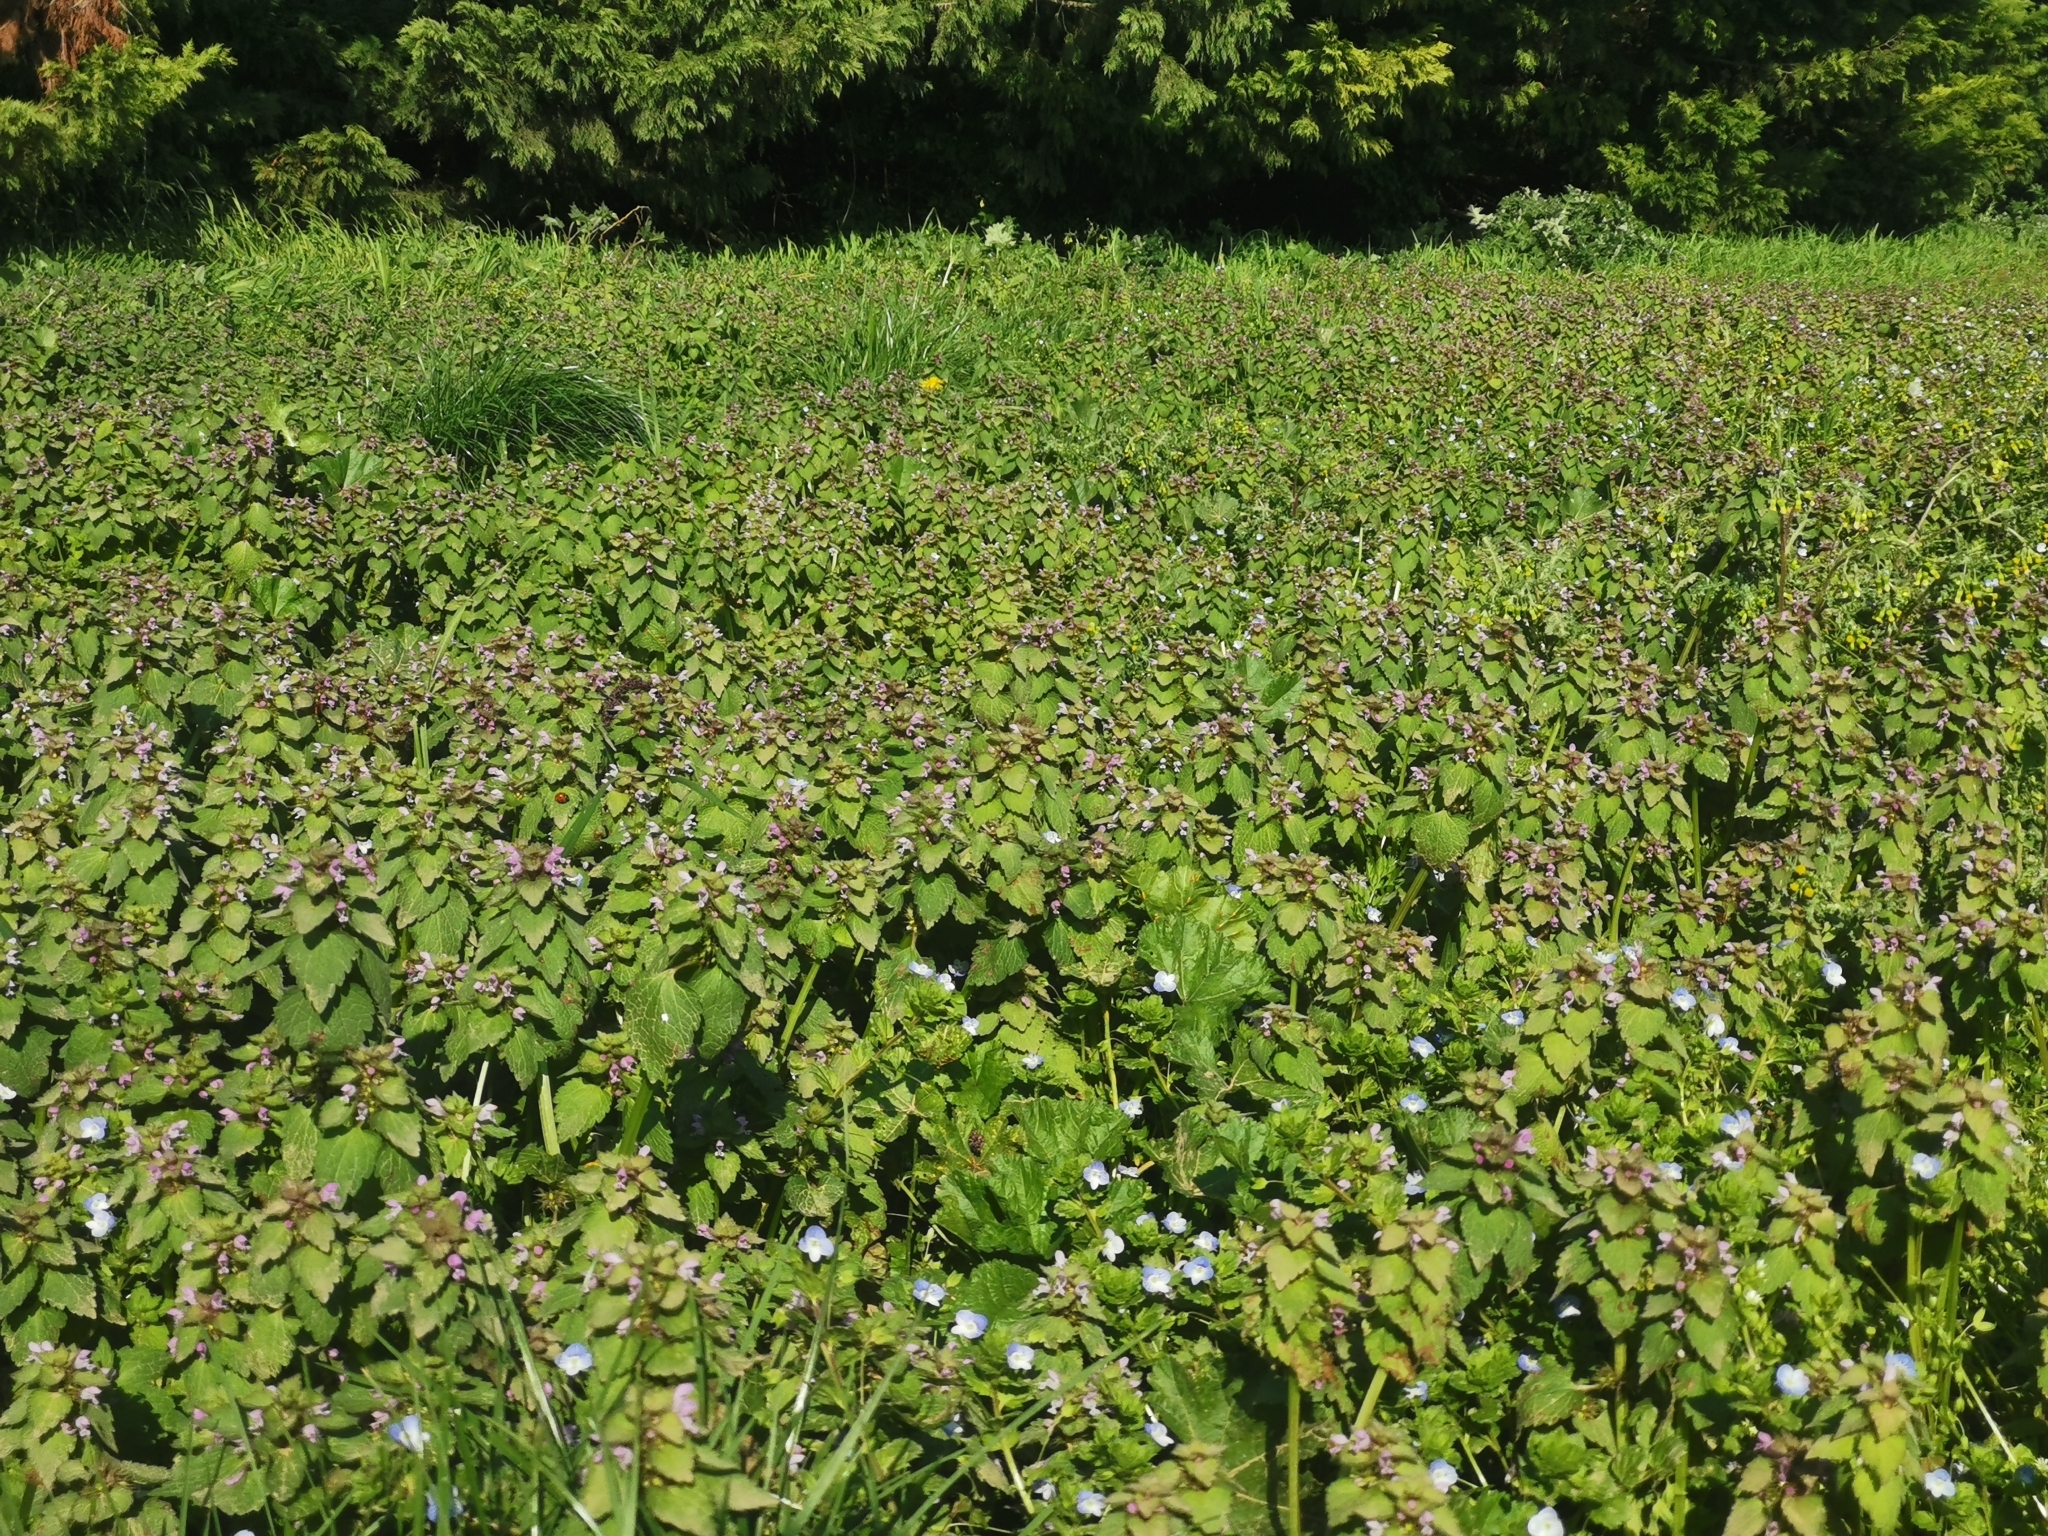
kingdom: Plantae
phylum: Tracheophyta
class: Magnoliopsida
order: Lamiales
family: Lamiaceae
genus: Lamium
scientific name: Lamium purpureum
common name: Red dead-nettle
